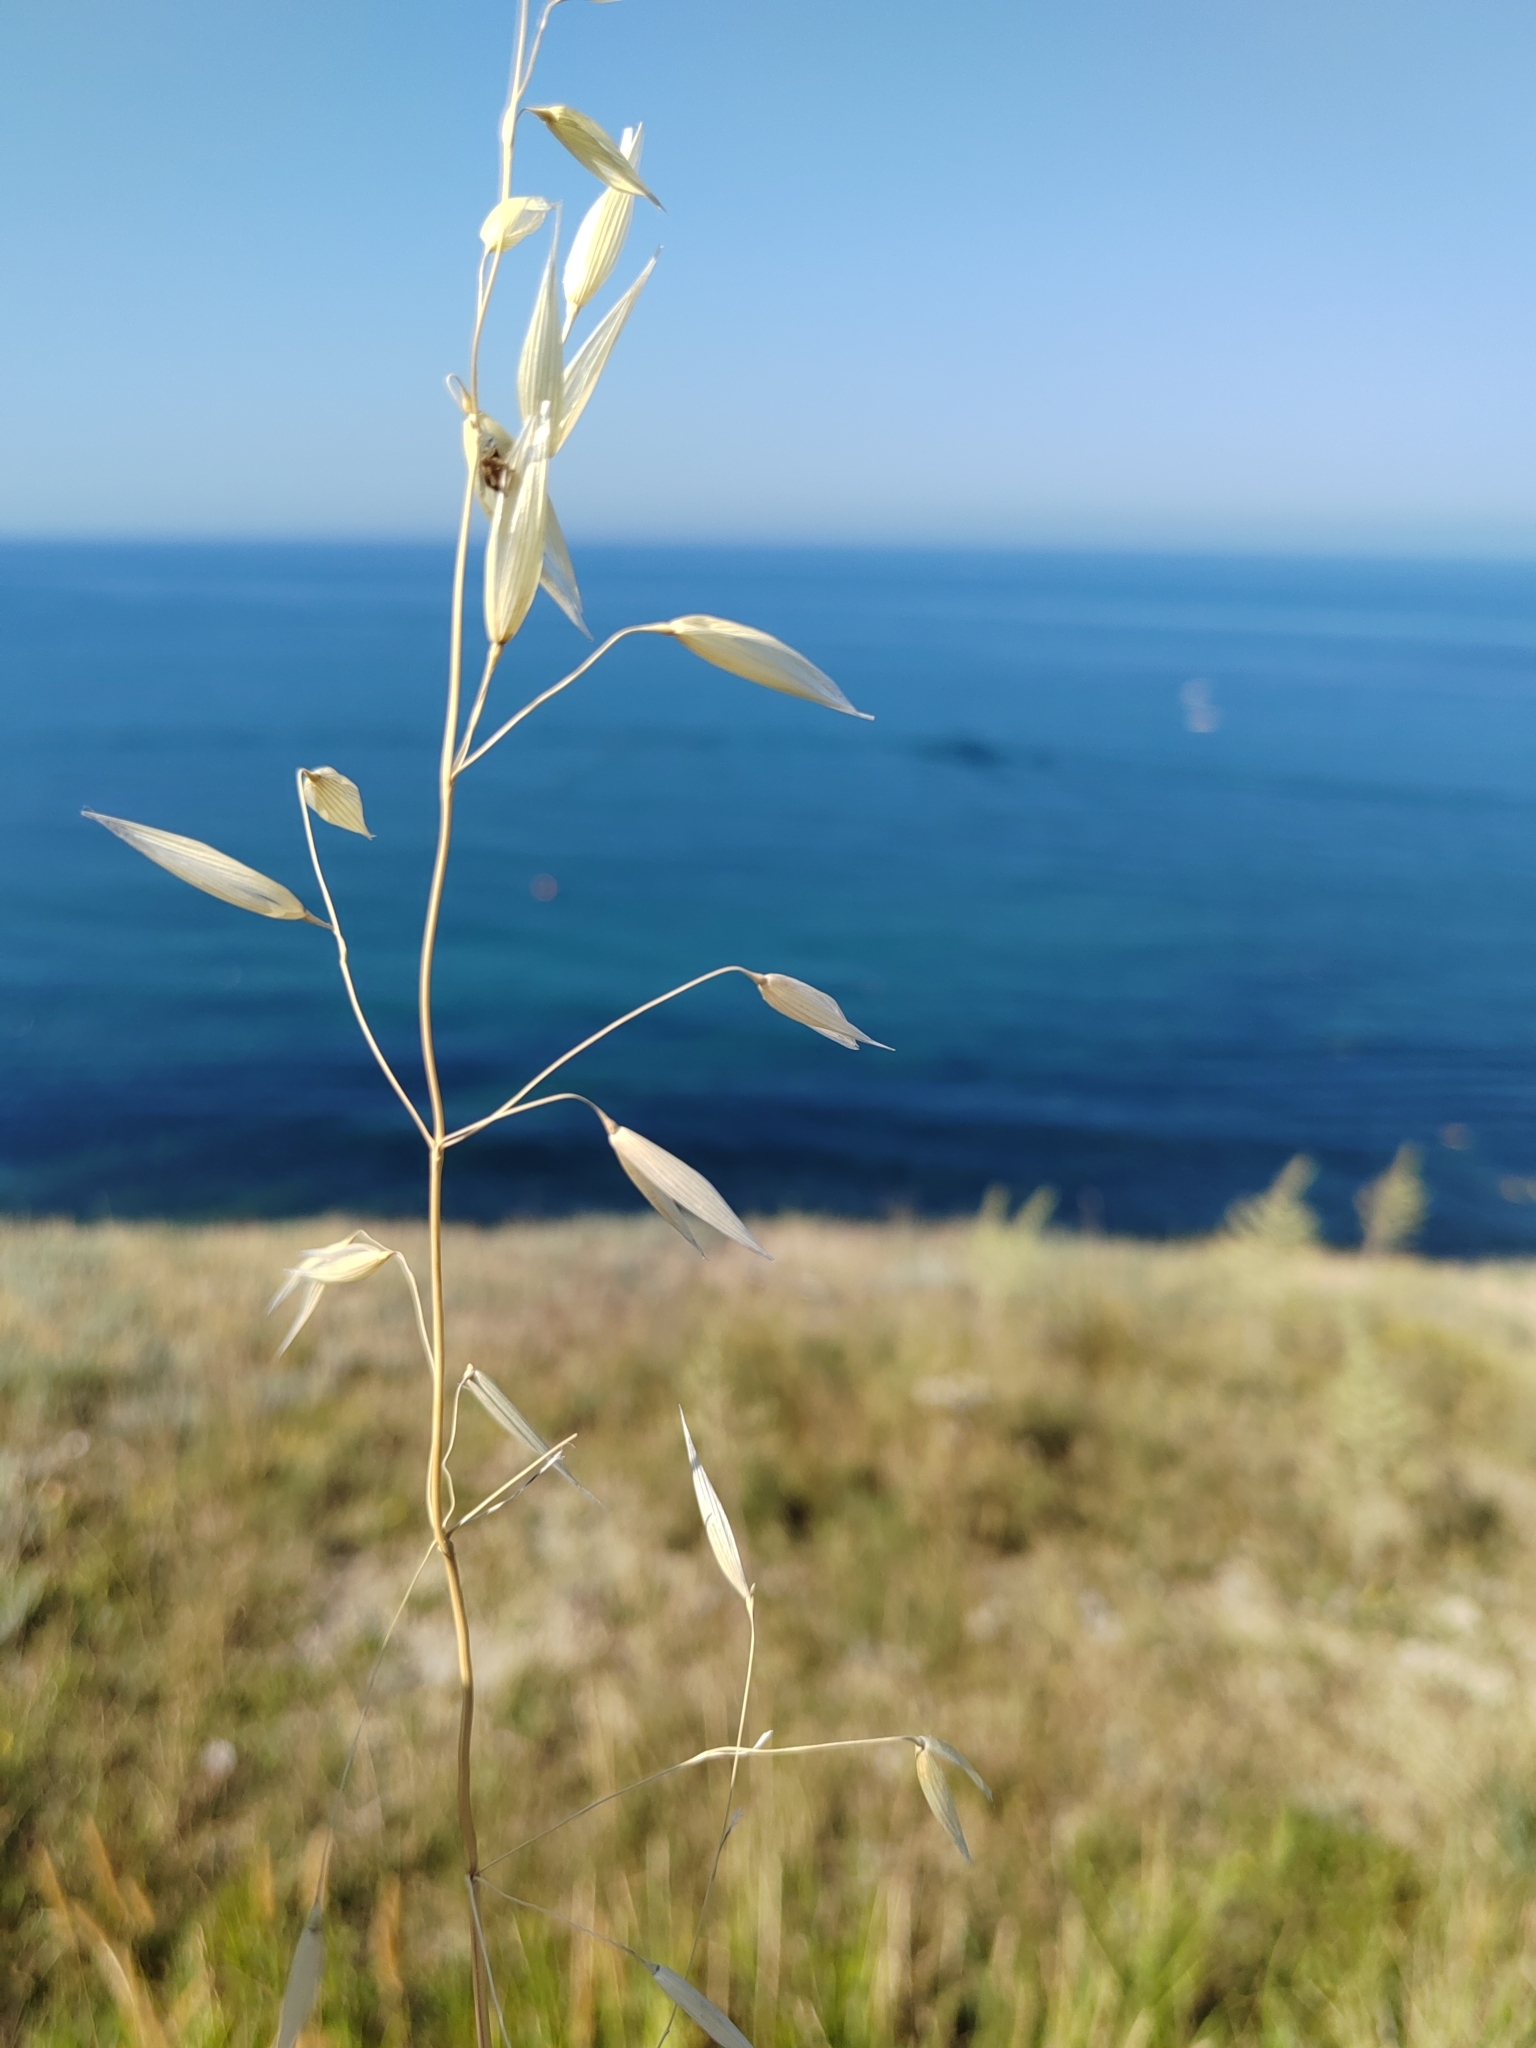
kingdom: Plantae
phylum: Tracheophyta
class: Liliopsida
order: Poales
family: Poaceae
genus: Avena
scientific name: Avena fatua
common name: Wild oat
